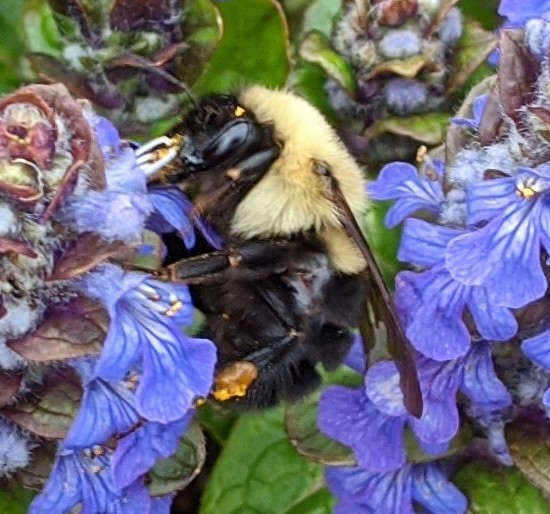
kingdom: Animalia
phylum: Arthropoda
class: Insecta
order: Hymenoptera
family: Apidae
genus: Bombus
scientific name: Bombus impatiens
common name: Common eastern bumble bee
